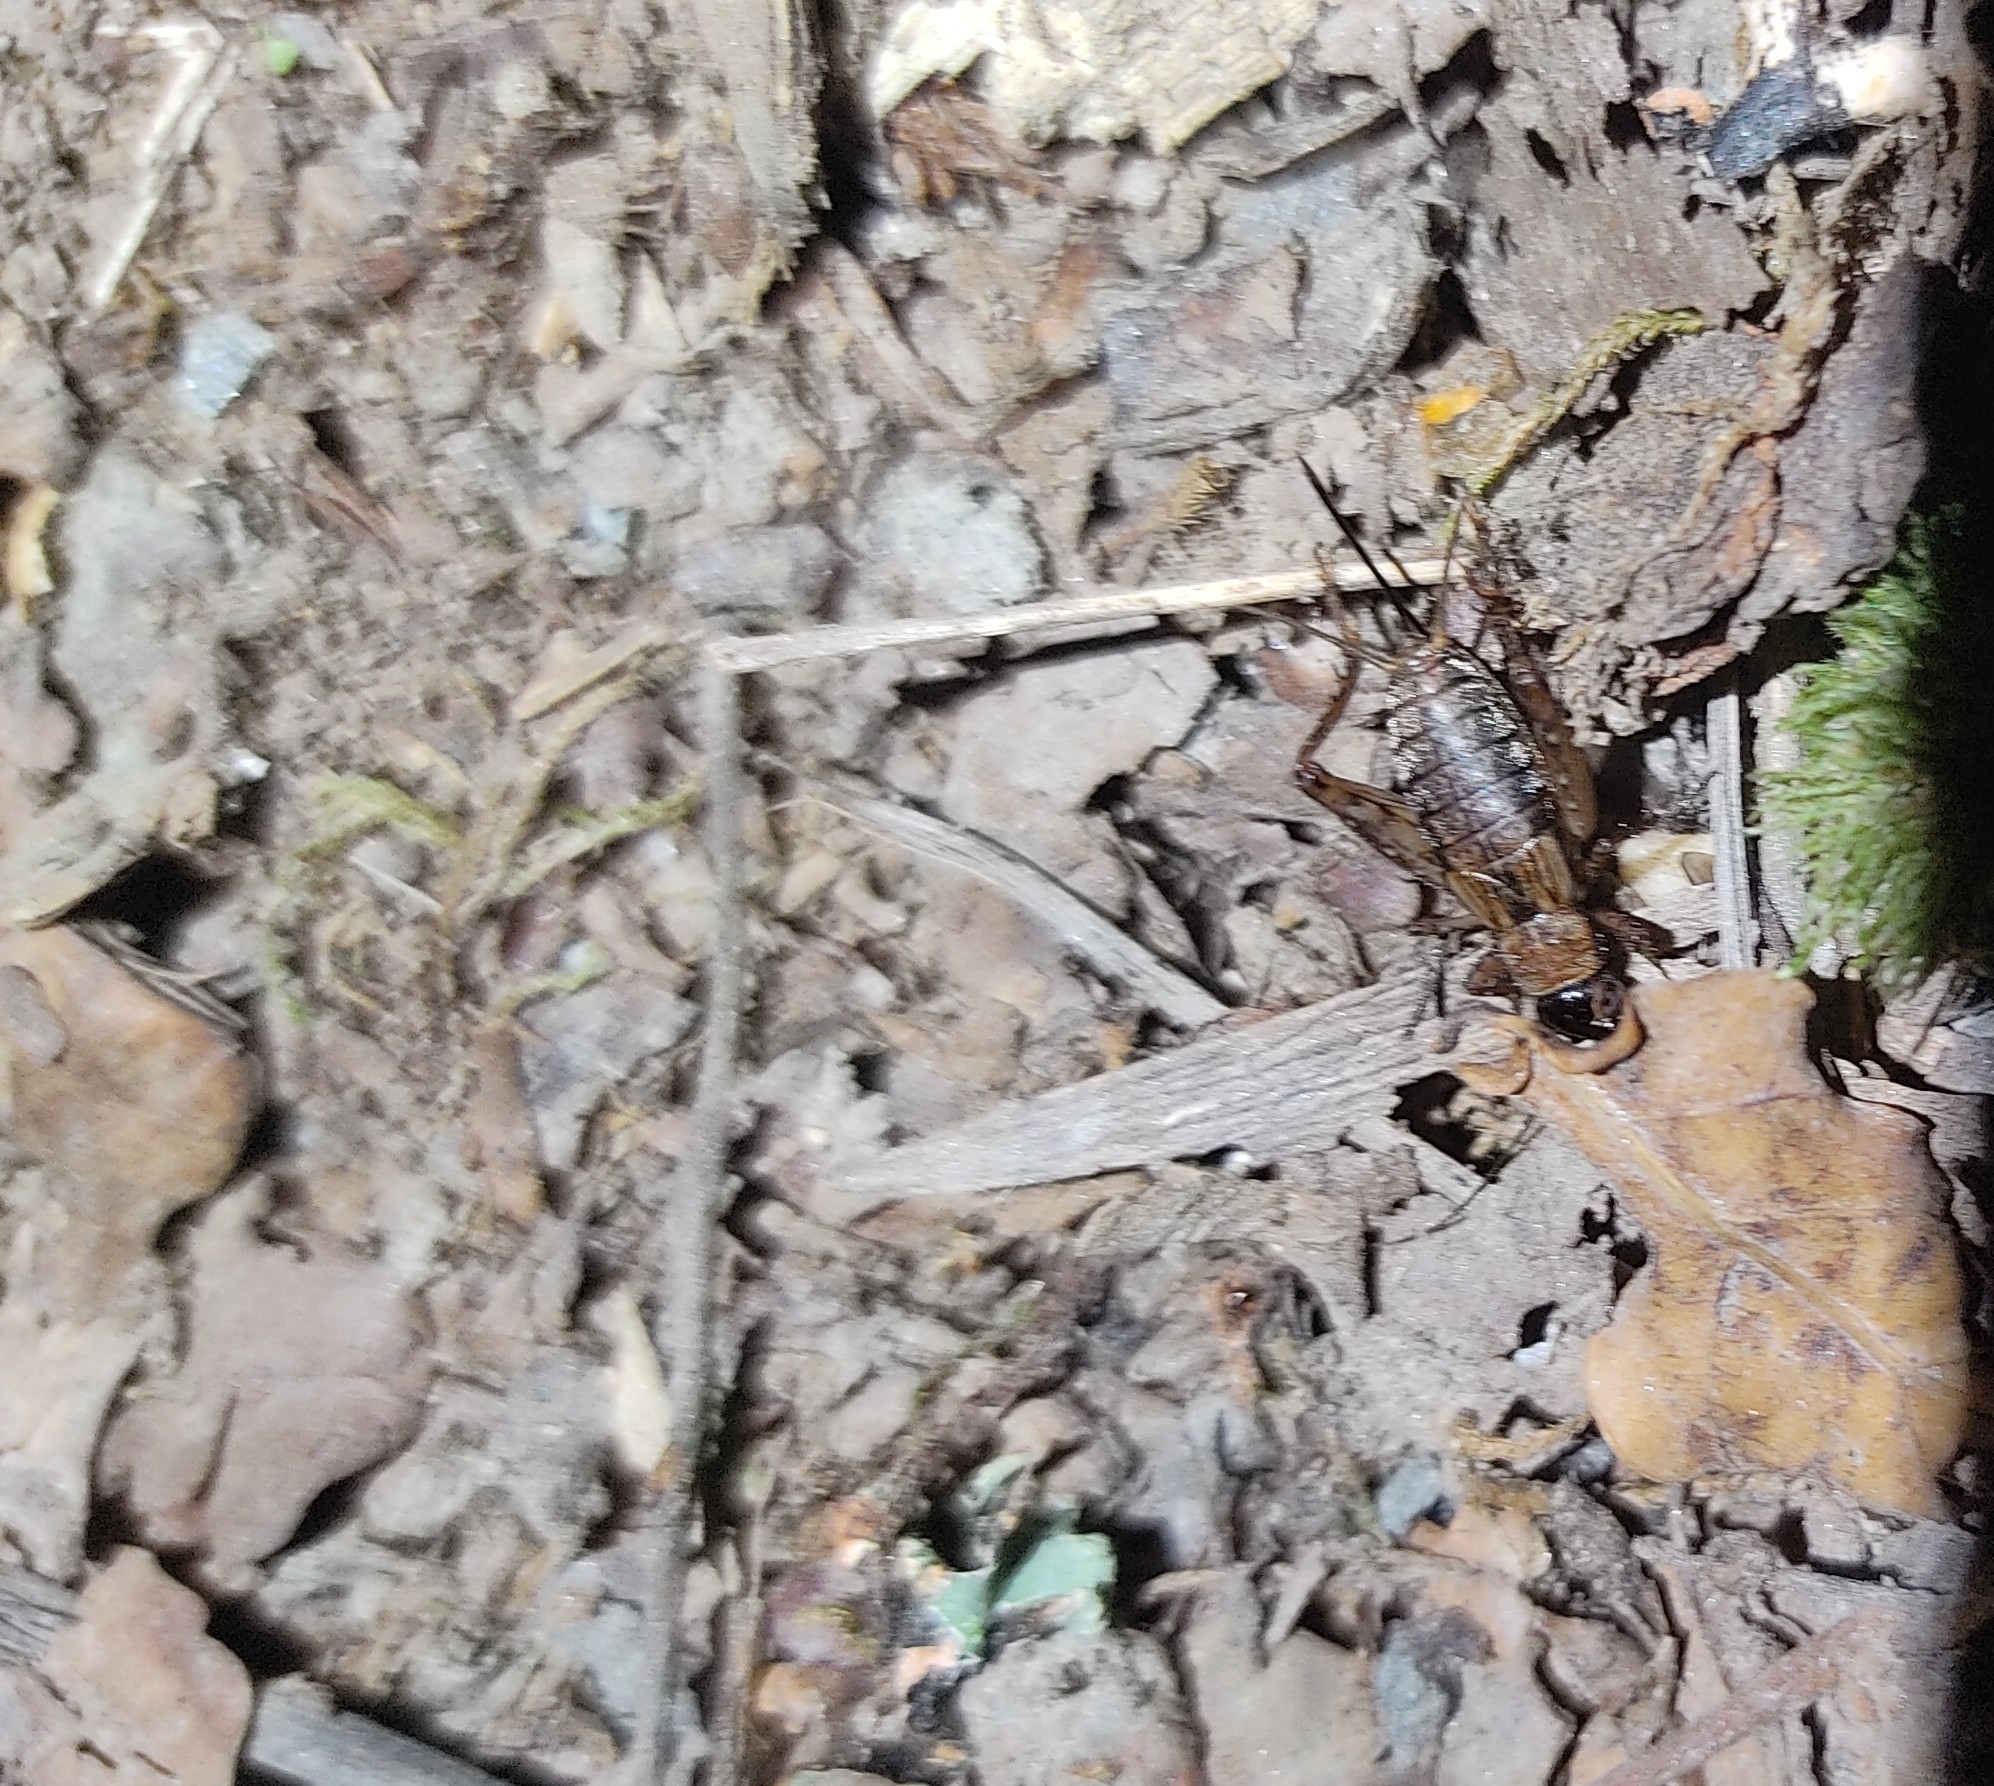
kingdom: Animalia
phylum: Arthropoda
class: Insecta
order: Orthoptera
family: Trigonidiidae
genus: Nemobius
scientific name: Nemobius sylvestris
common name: Wood-cricket
